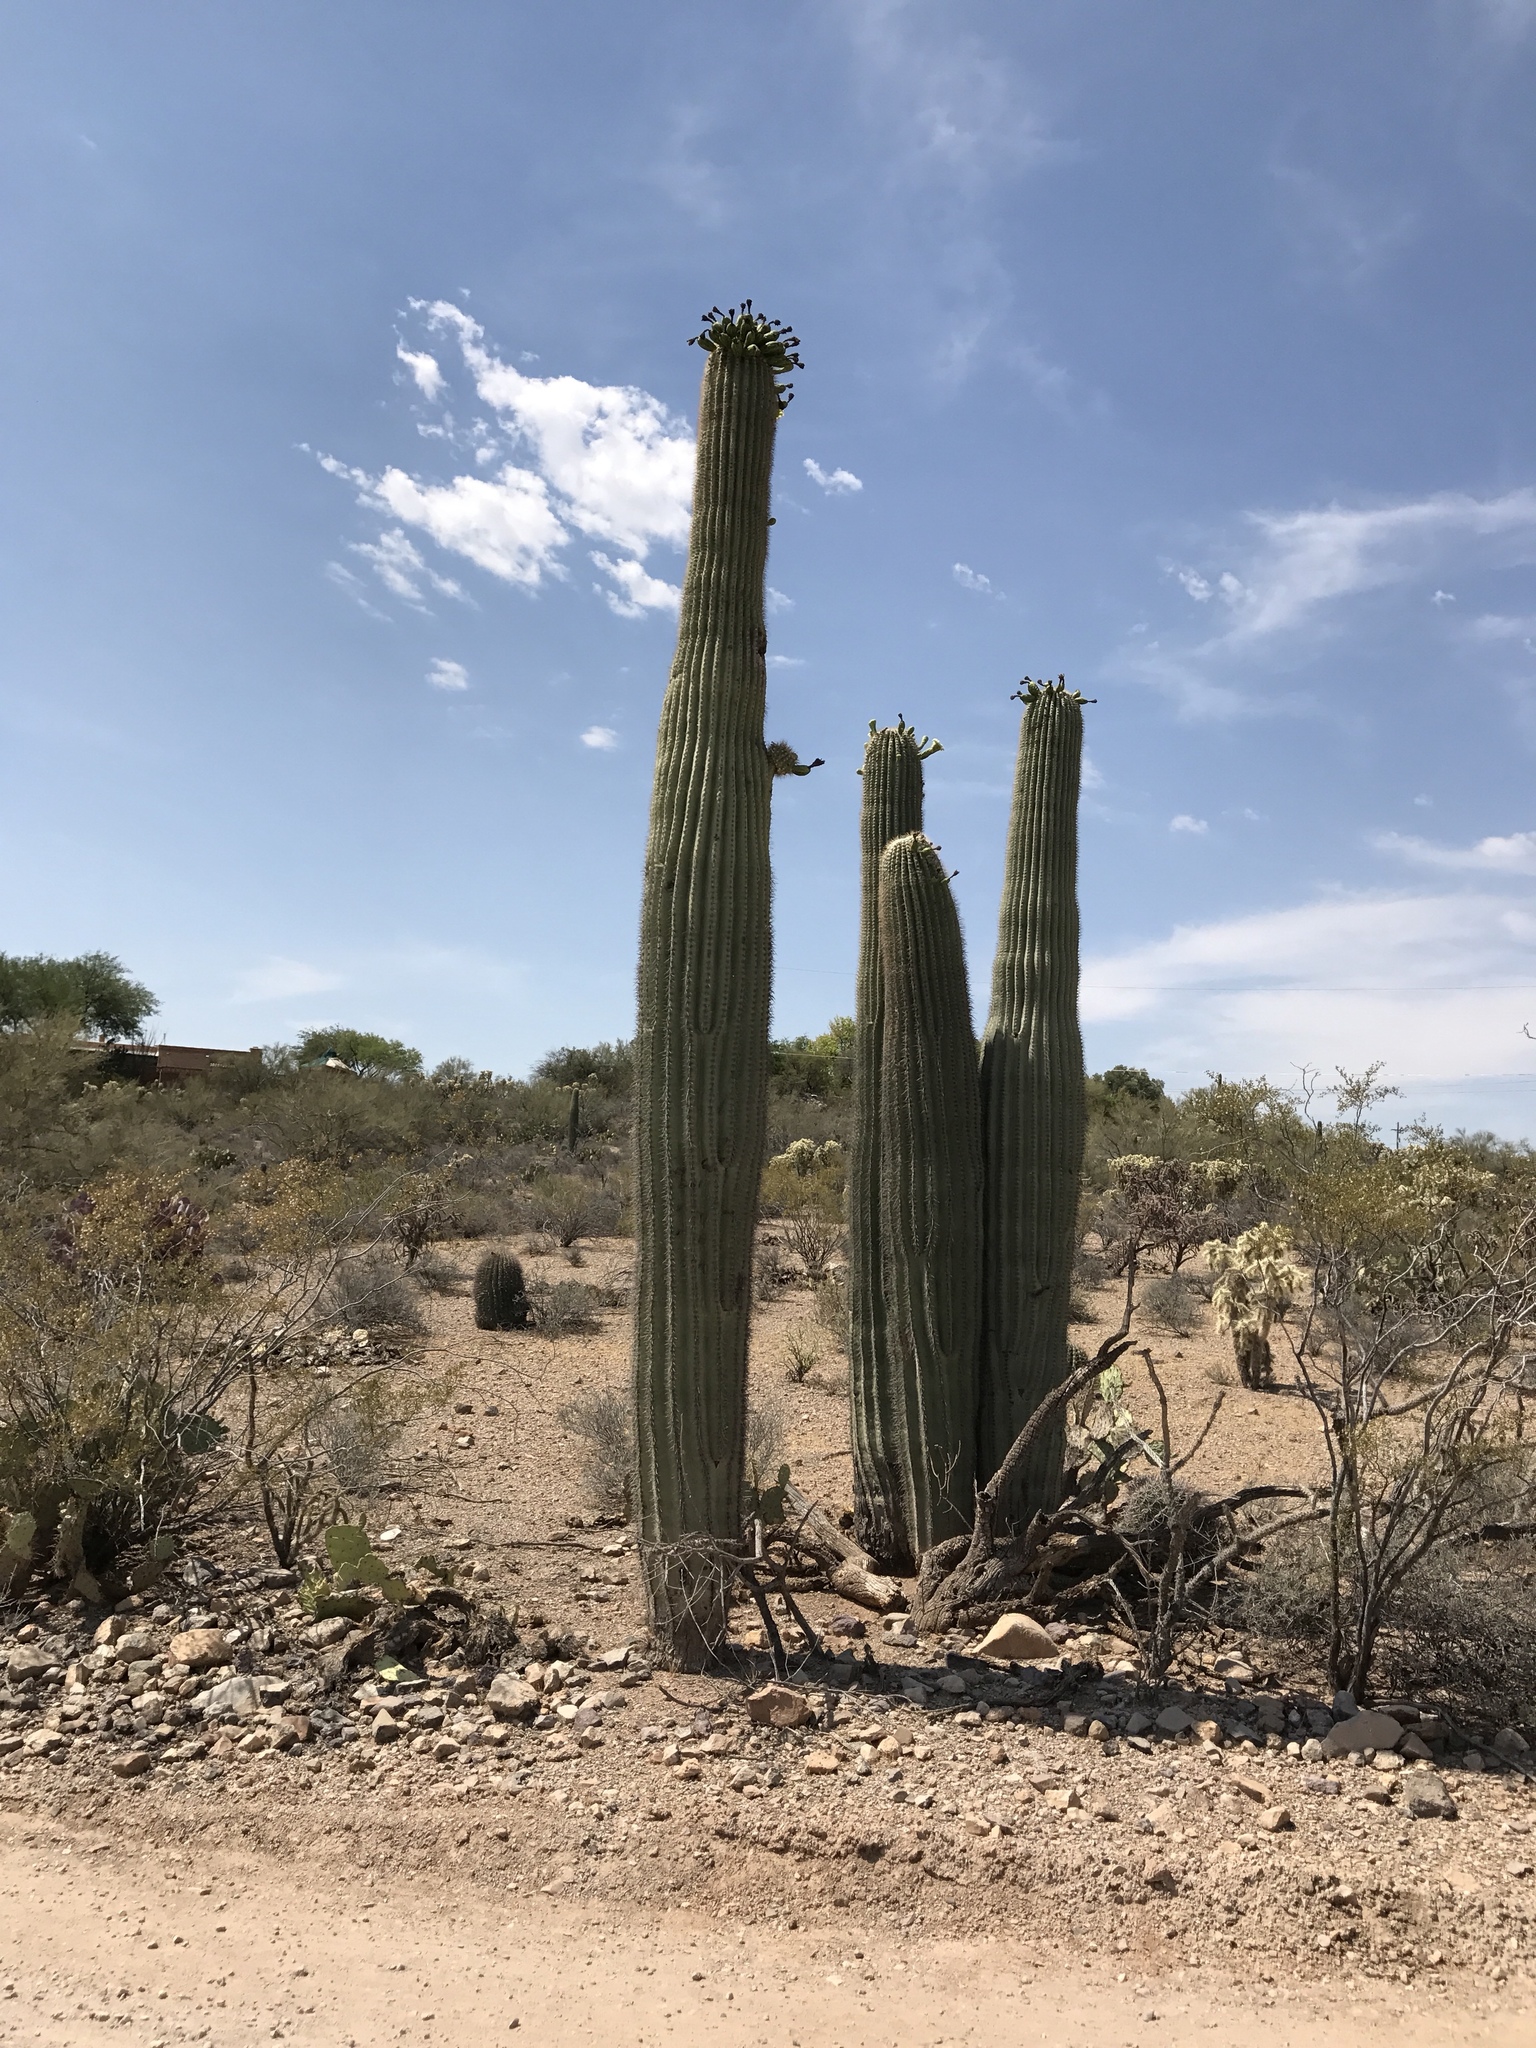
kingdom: Plantae
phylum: Tracheophyta
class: Magnoliopsida
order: Caryophyllales
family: Cactaceae
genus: Carnegiea
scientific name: Carnegiea gigantea
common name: Saguaro
